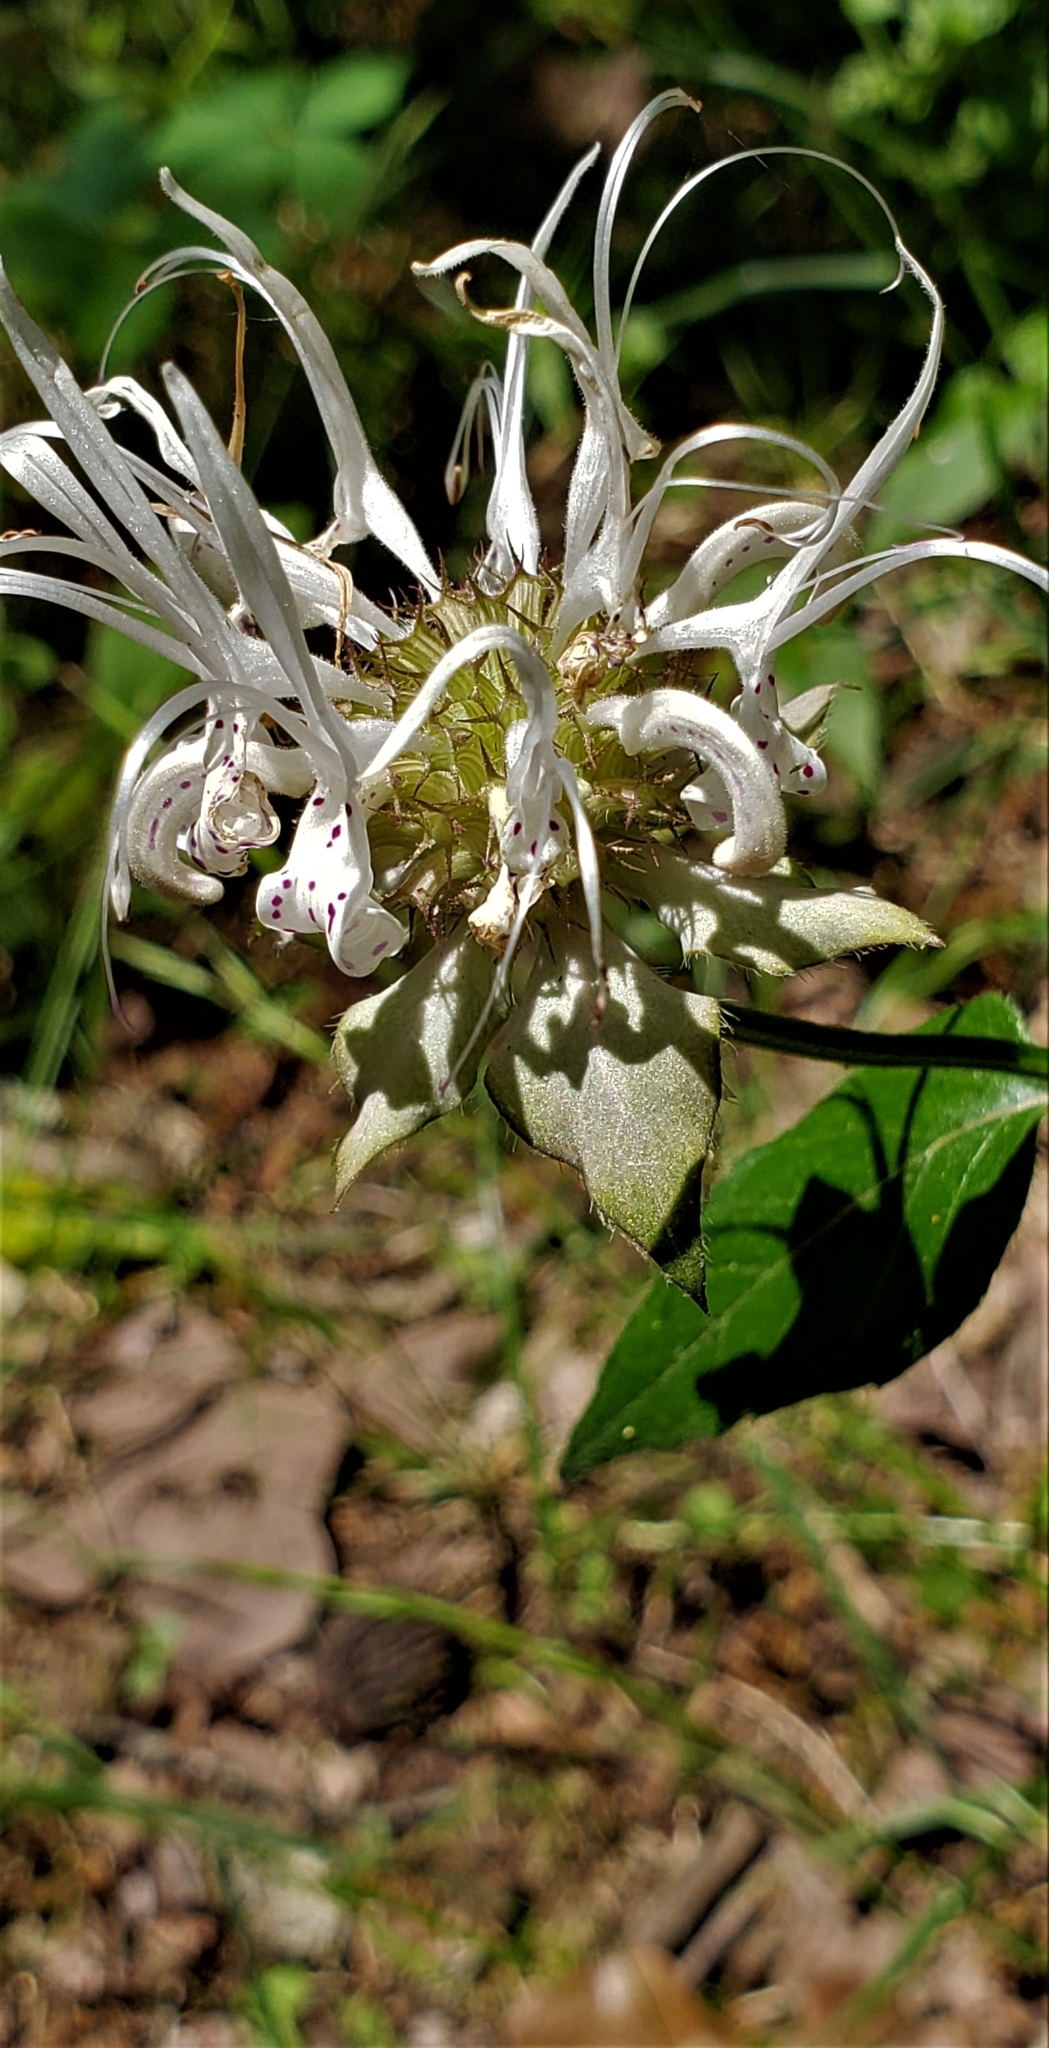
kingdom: Plantae
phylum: Tracheophyta
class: Magnoliopsida
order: Lamiales
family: Lamiaceae
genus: Monarda
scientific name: Monarda russeliana
